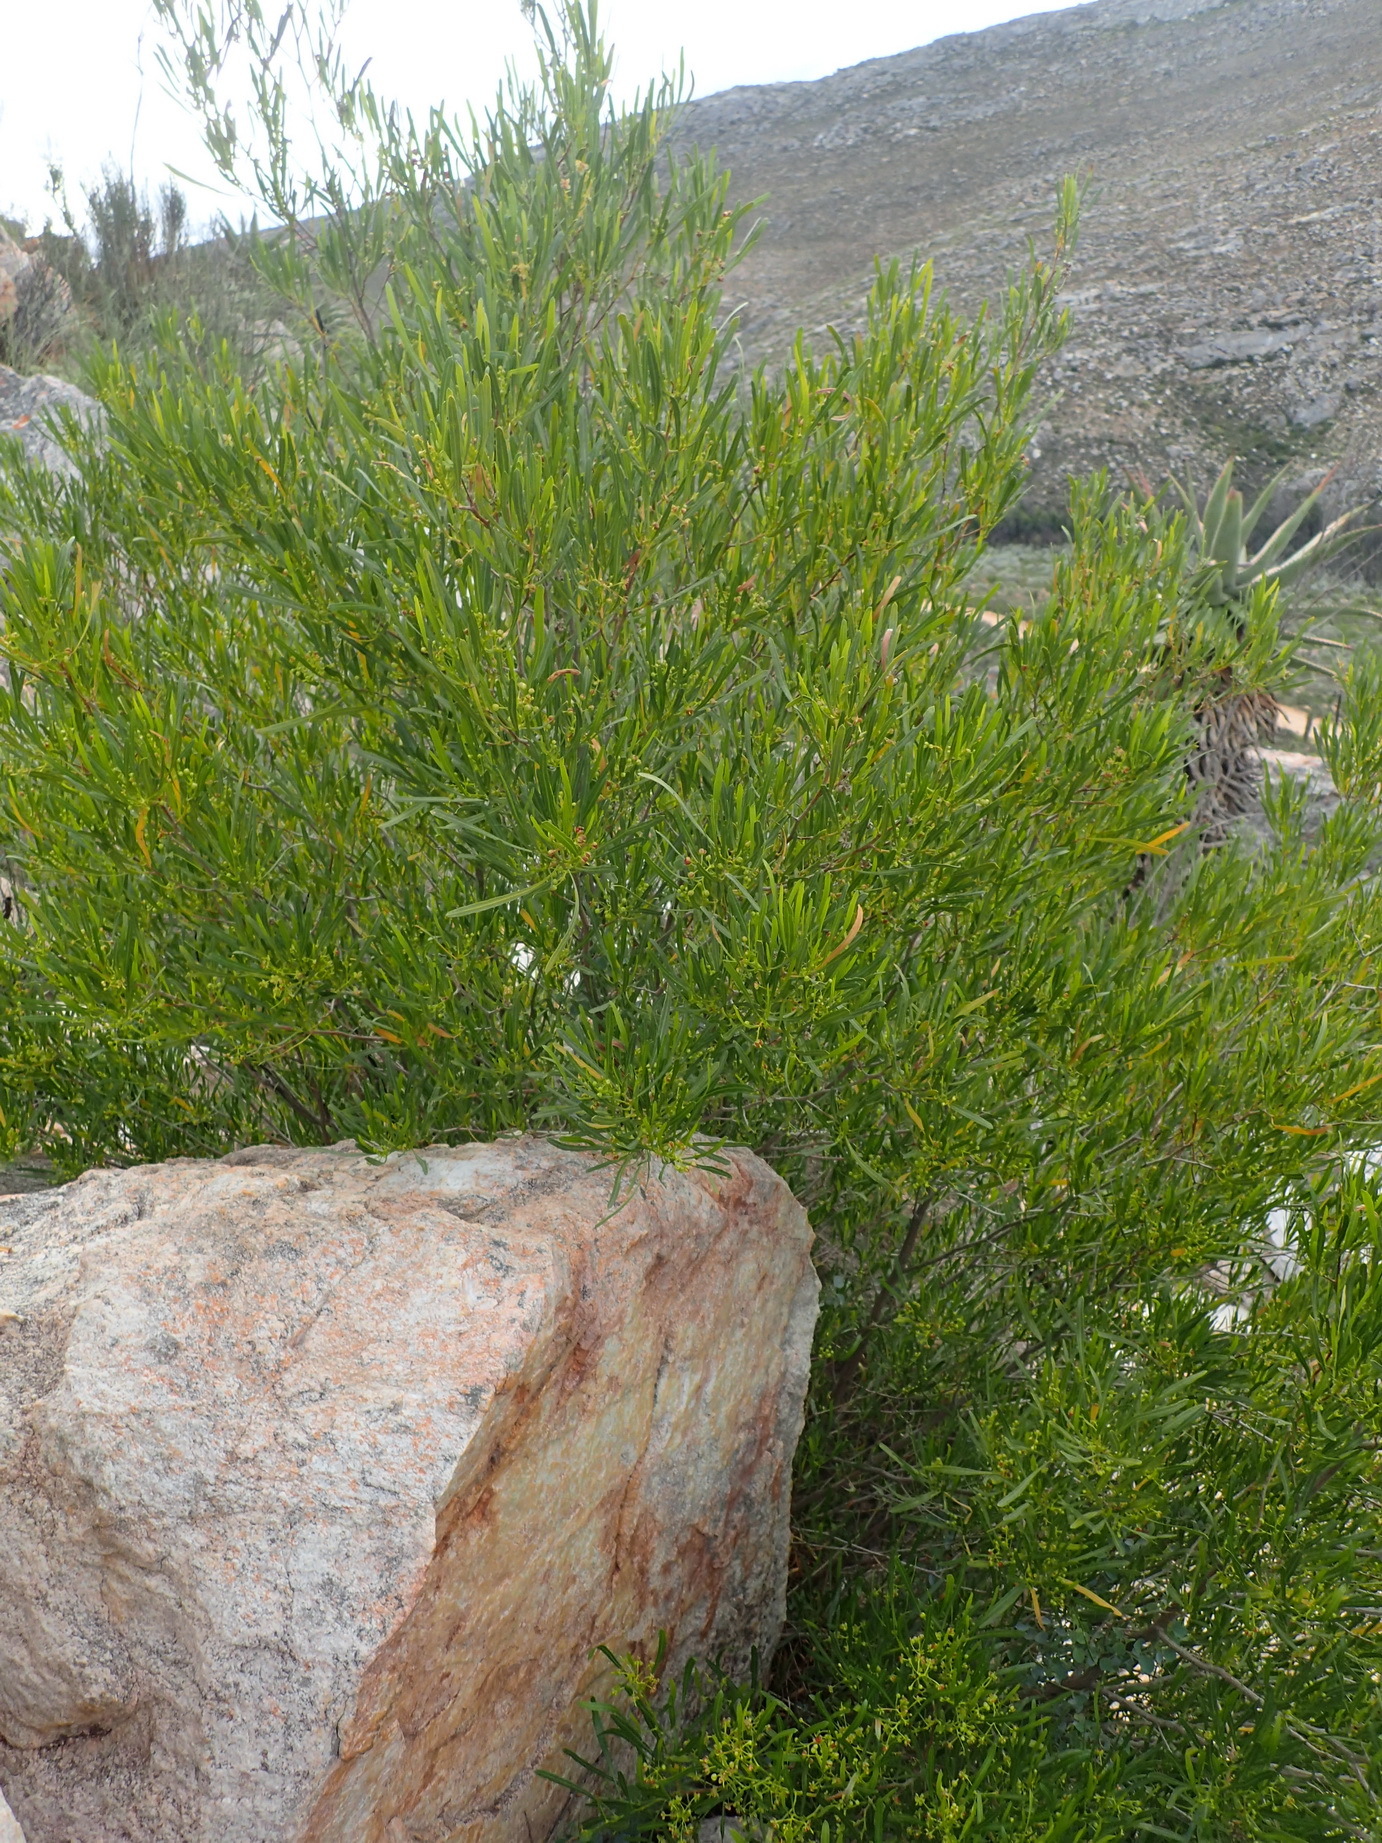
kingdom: Plantae
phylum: Tracheophyta
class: Magnoliopsida
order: Sapindales
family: Sapindaceae
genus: Dodonaea
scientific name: Dodonaea viscosa
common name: Hopbush
